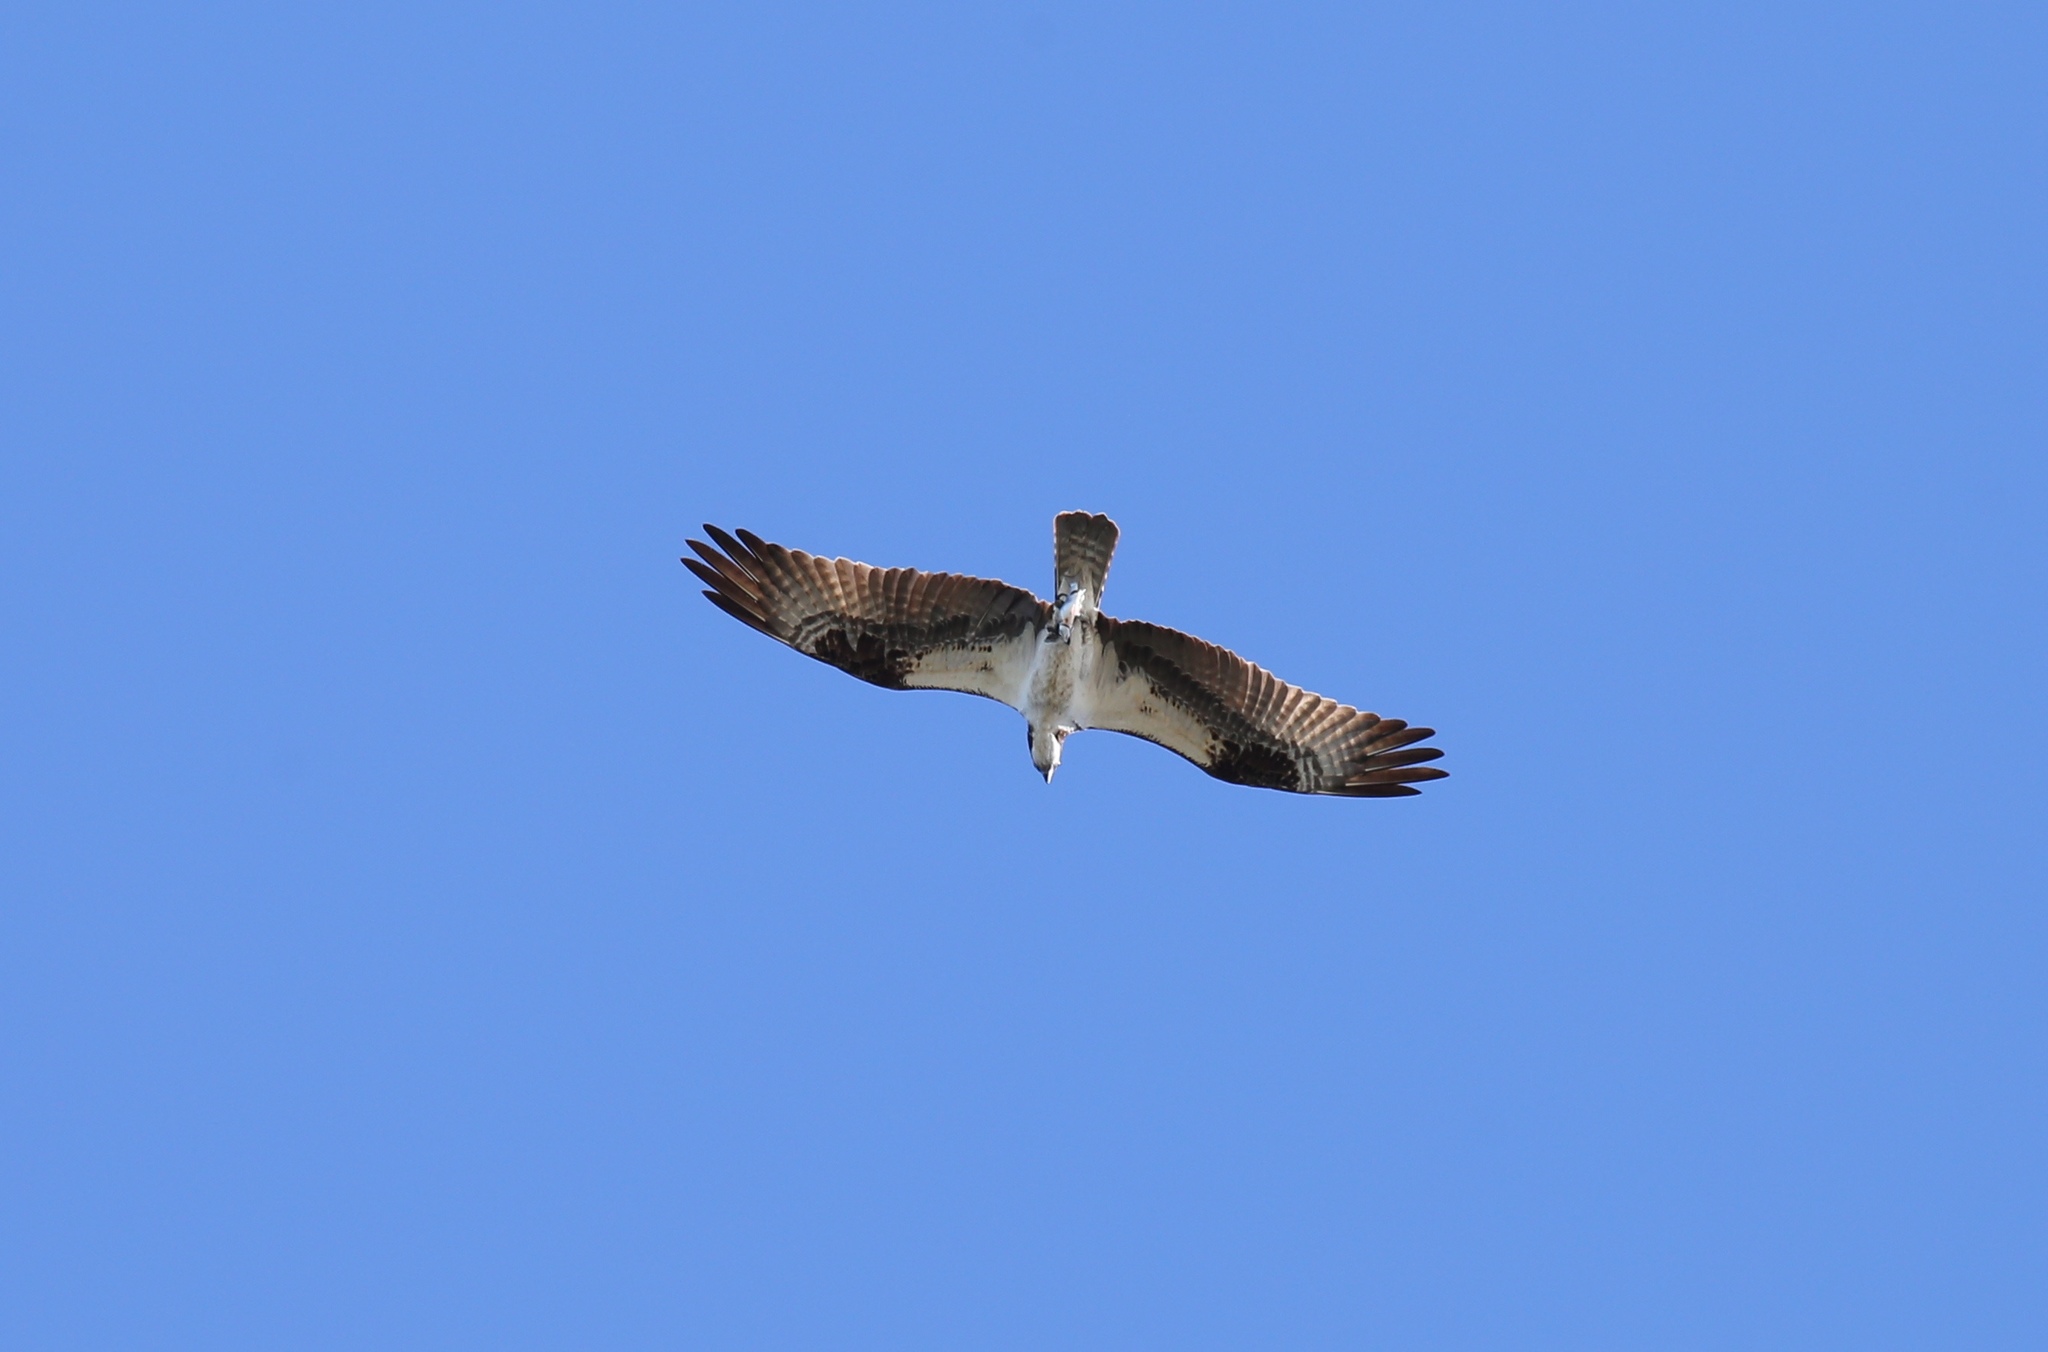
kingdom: Animalia
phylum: Chordata
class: Aves
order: Accipitriformes
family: Pandionidae
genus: Pandion
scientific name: Pandion haliaetus
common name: Osprey
